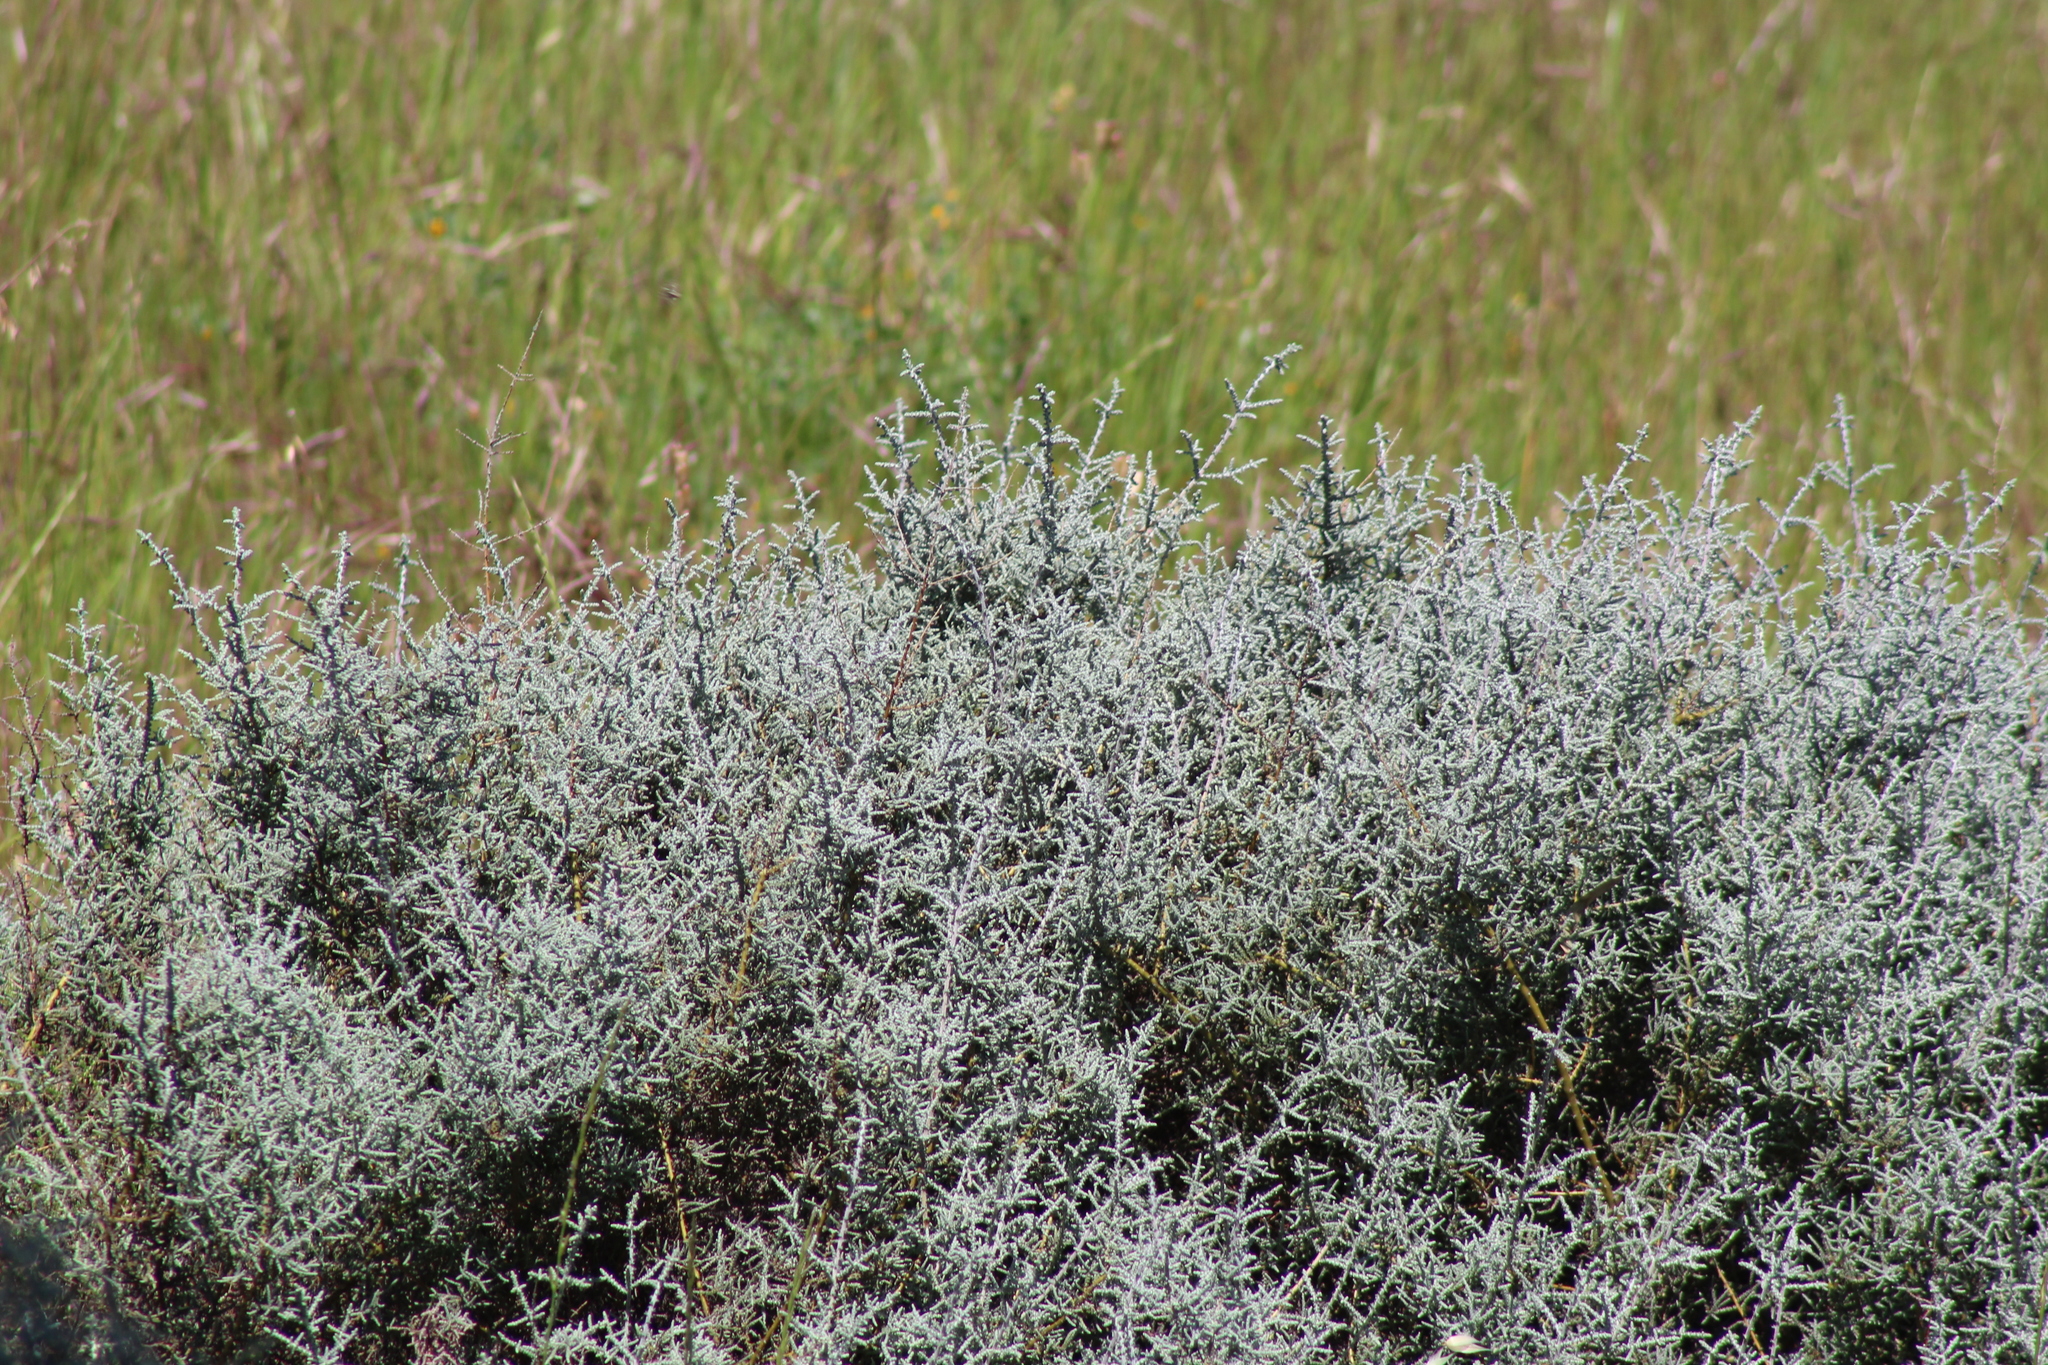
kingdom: Plantae
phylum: Tracheophyta
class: Magnoliopsida
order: Asterales
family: Asteraceae
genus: Seriphium
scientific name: Seriphium plumosum
